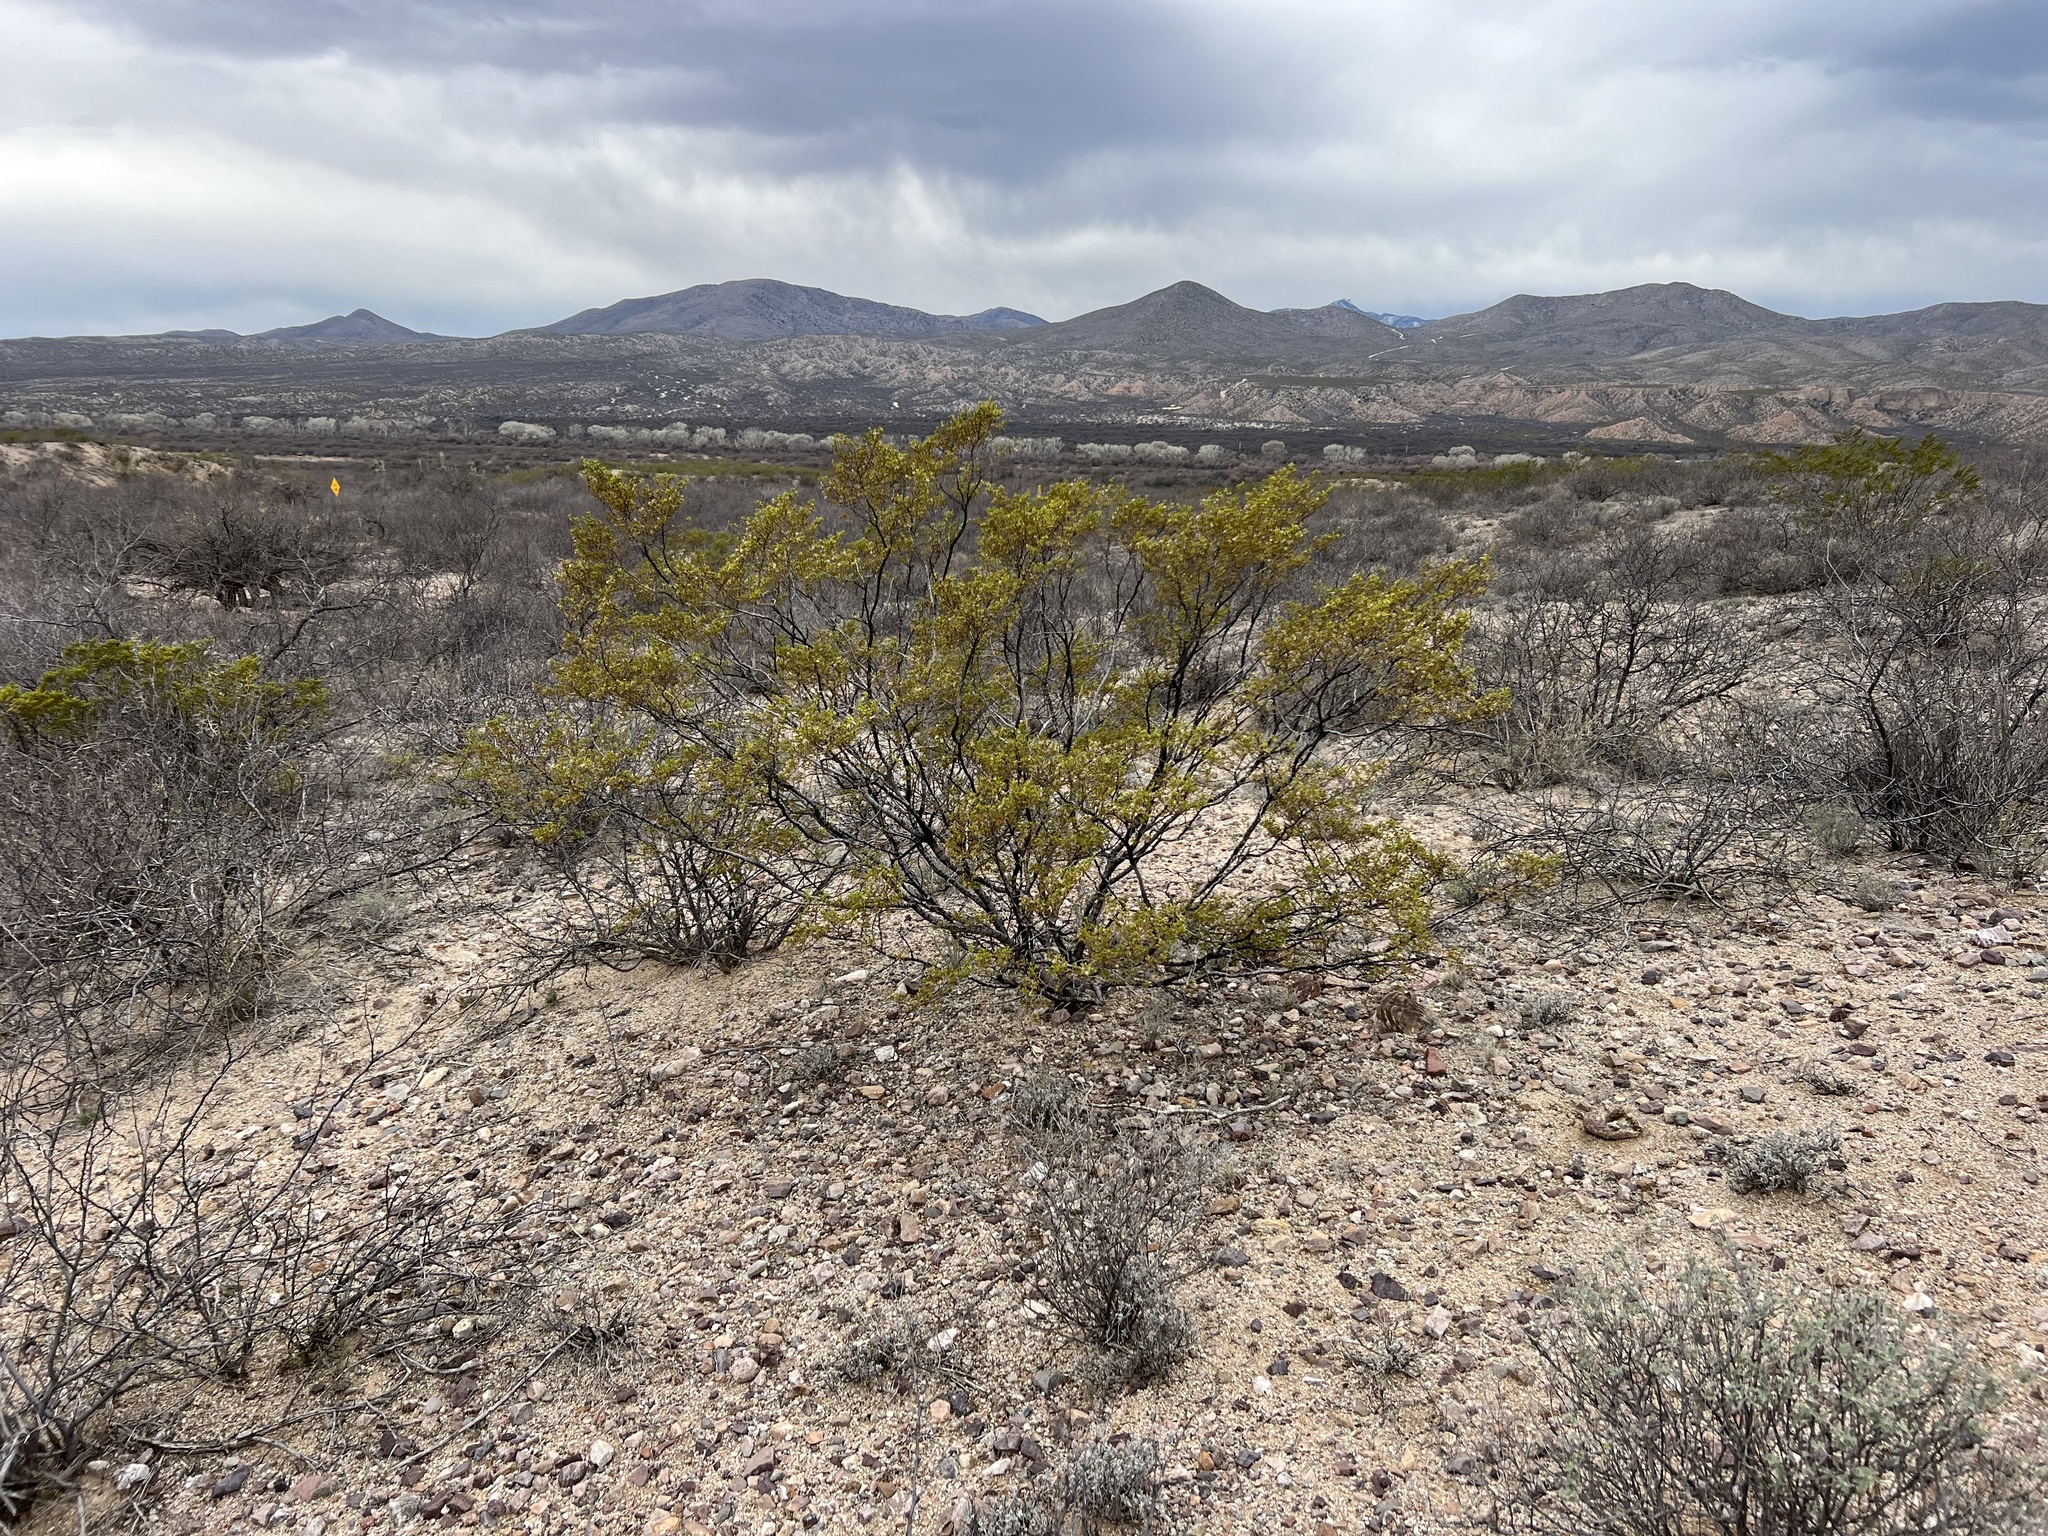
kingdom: Plantae
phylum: Tracheophyta
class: Magnoliopsida
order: Zygophyllales
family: Zygophyllaceae
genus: Larrea
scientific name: Larrea tridentata
